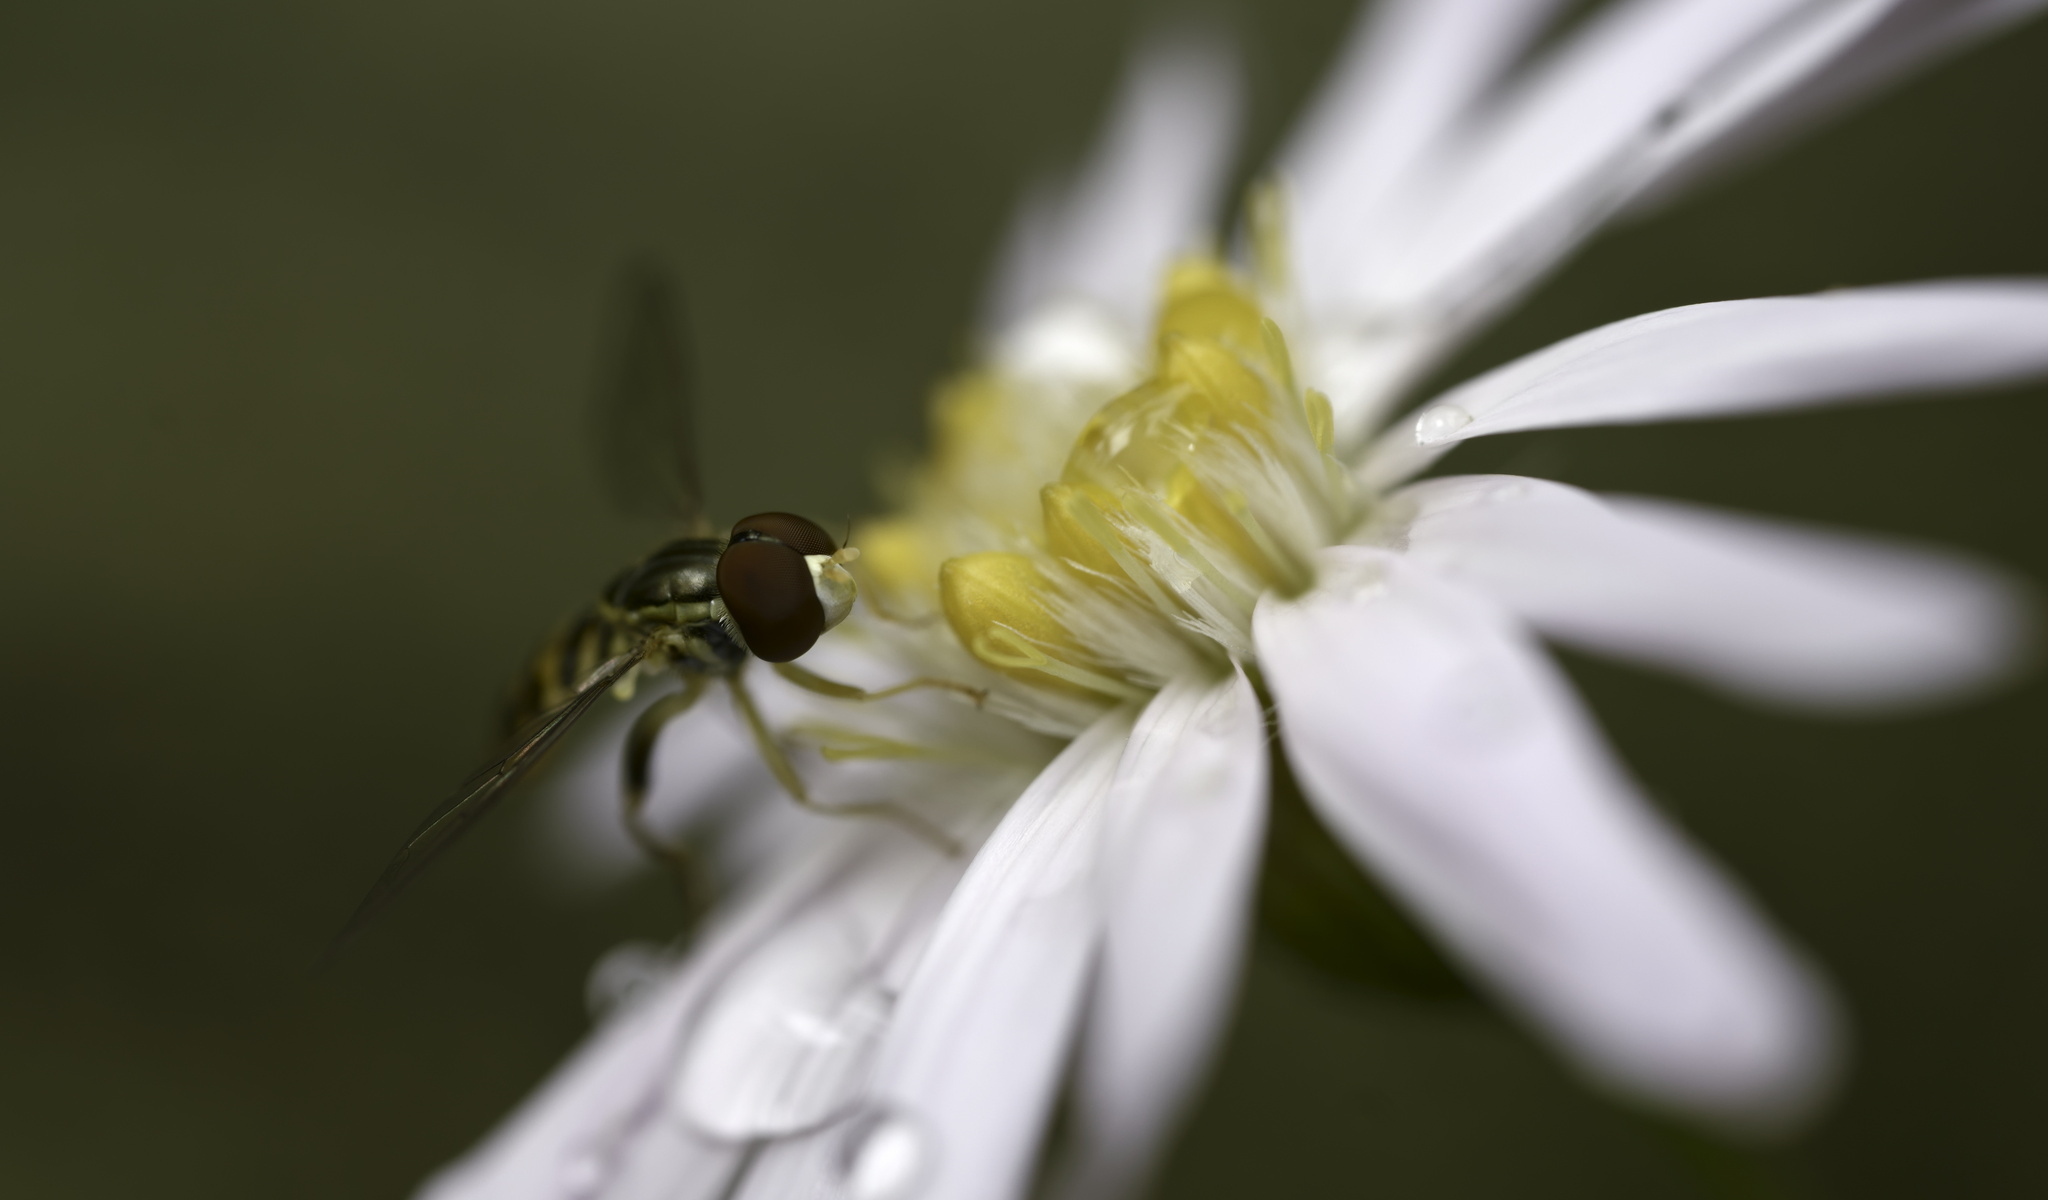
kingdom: Animalia
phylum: Arthropoda
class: Insecta
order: Diptera
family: Syrphidae
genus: Toxomerus
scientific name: Toxomerus geminatus
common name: Eastern calligrapher
